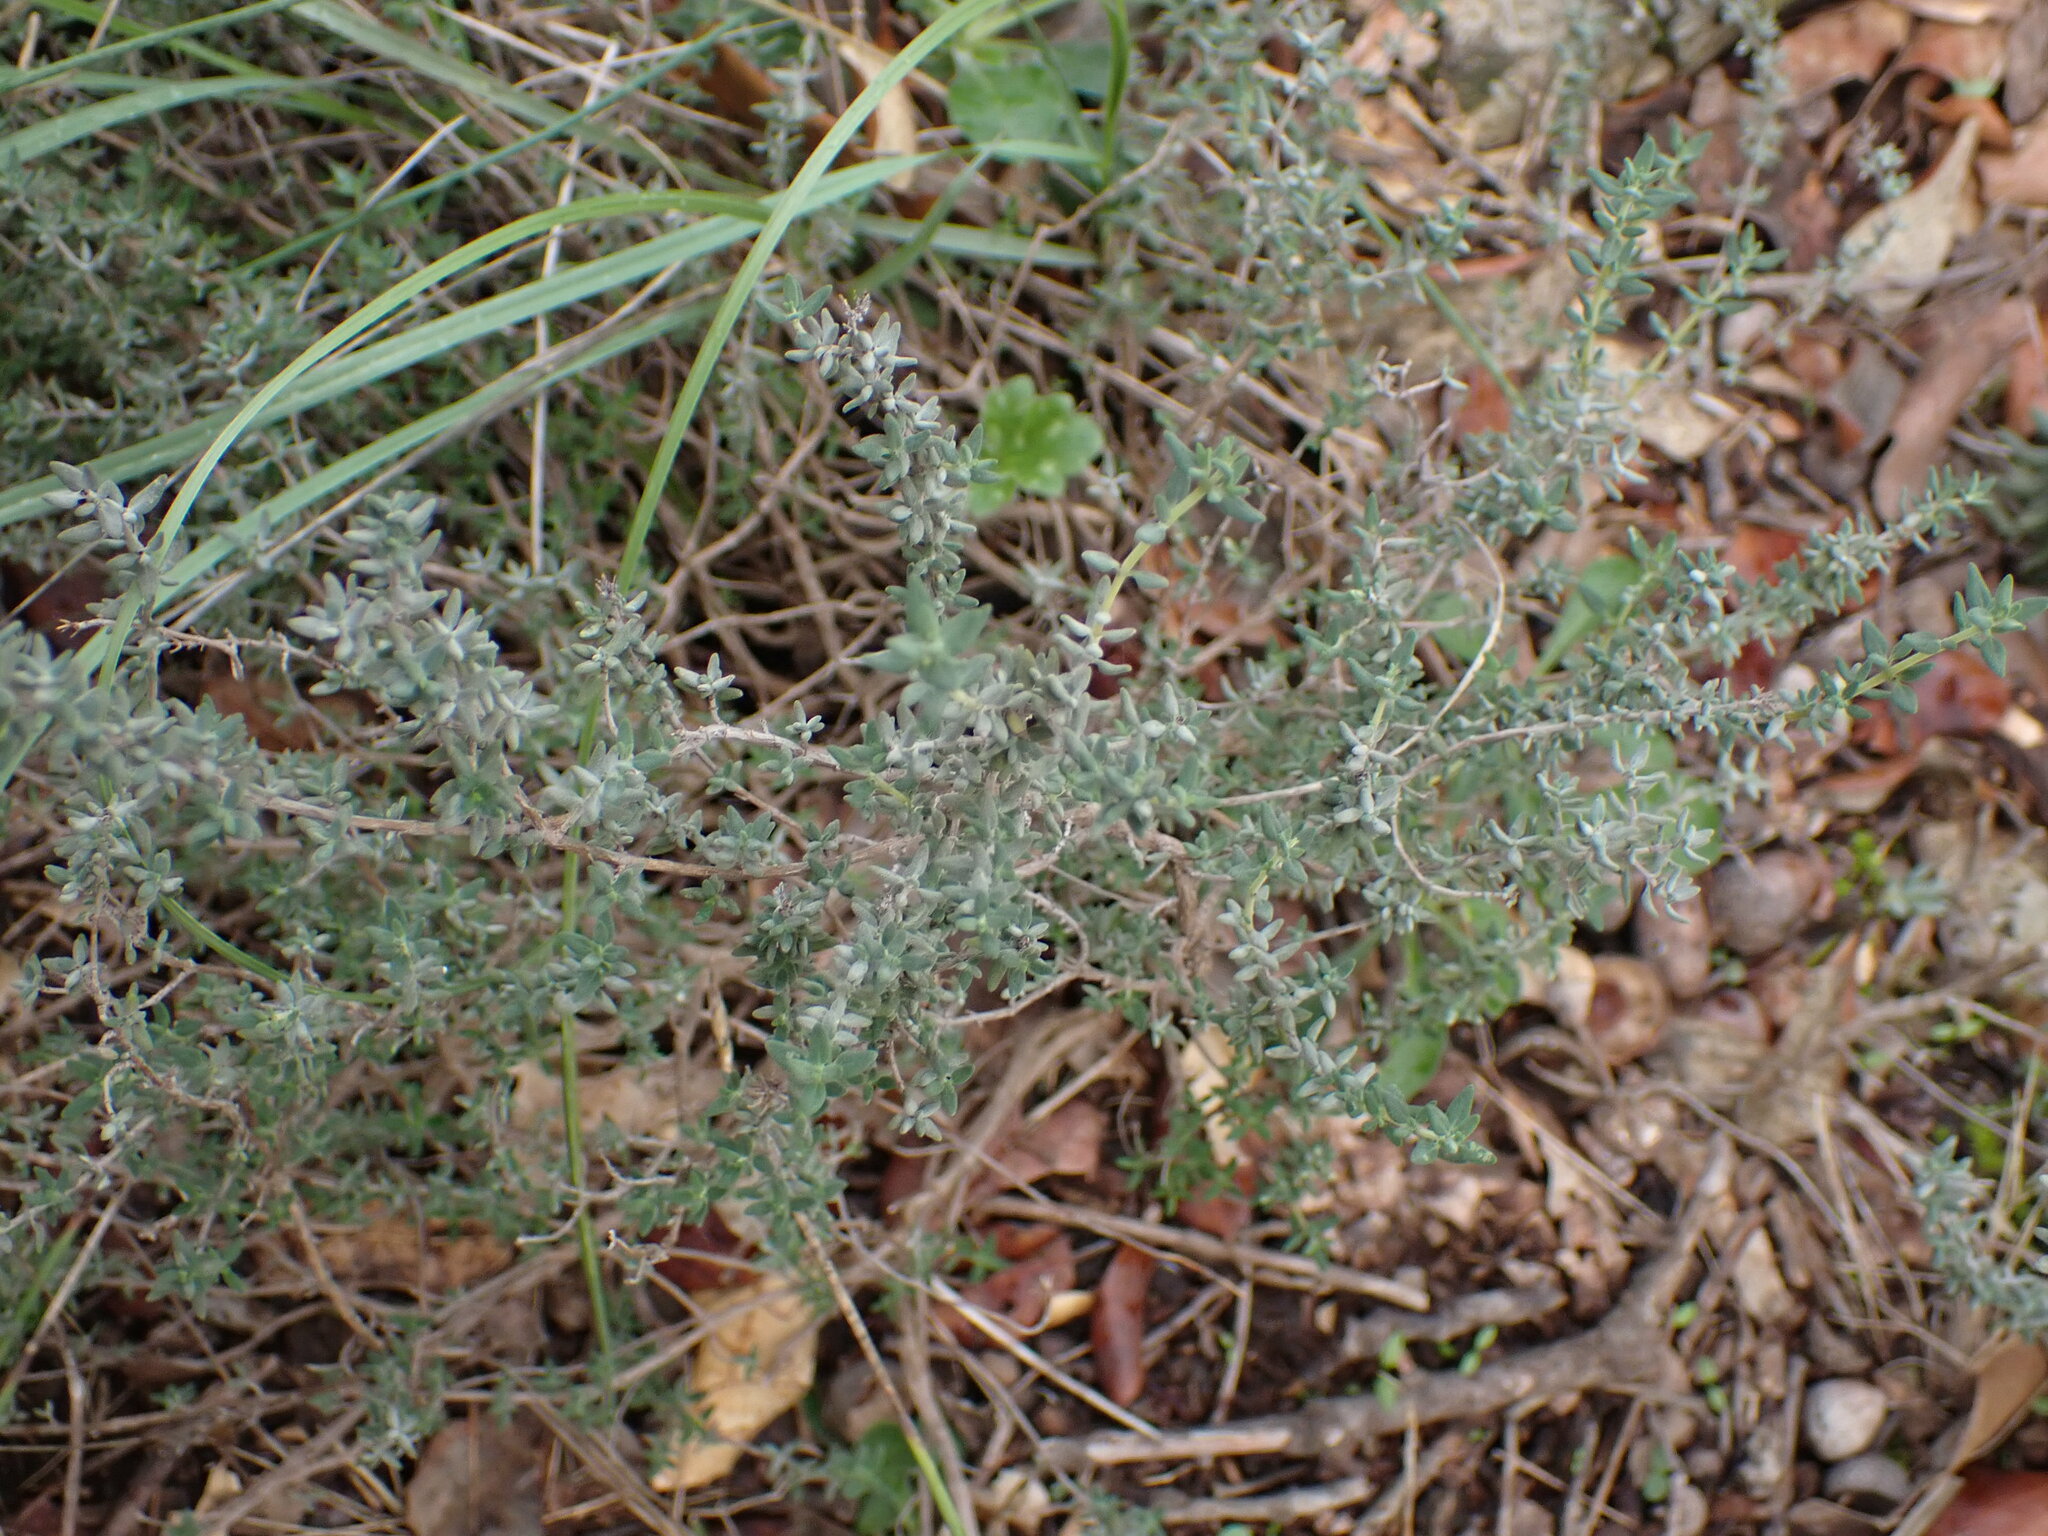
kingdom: Plantae
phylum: Tracheophyta
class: Magnoliopsida
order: Lamiales
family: Lamiaceae
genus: Thymus
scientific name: Thymus vulgaris
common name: Garden thyme
